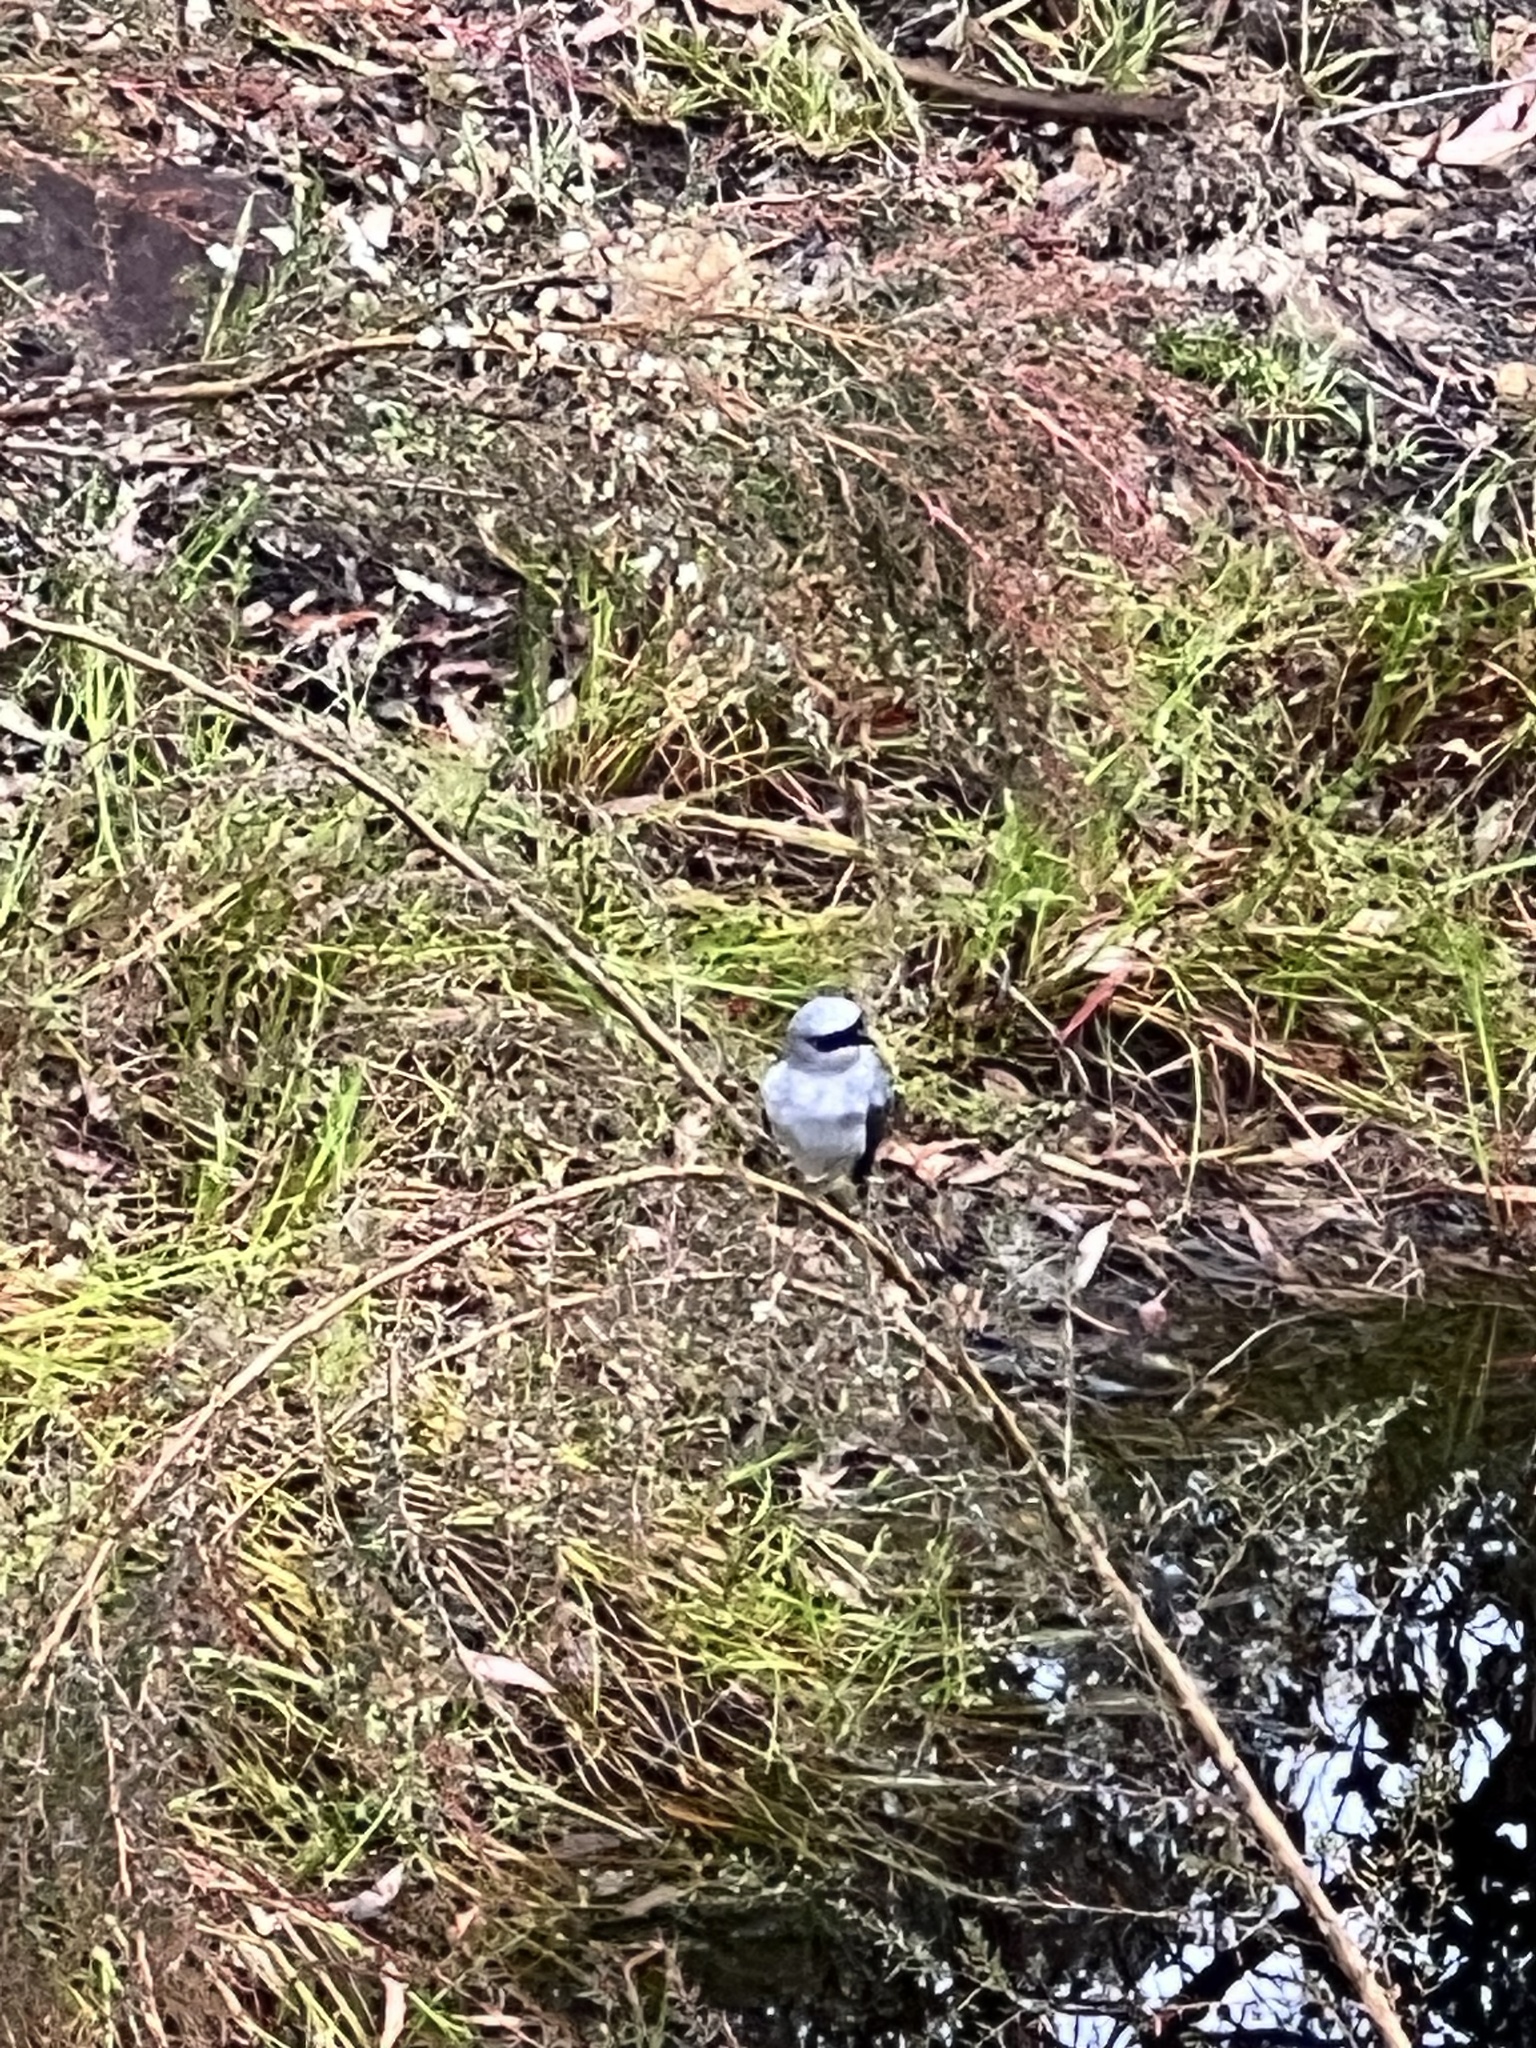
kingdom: Animalia
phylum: Chordata
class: Aves
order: Passeriformes
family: Campephagidae
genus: Coracina
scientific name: Coracina papuensis
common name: White-bellied cuckooshrike
